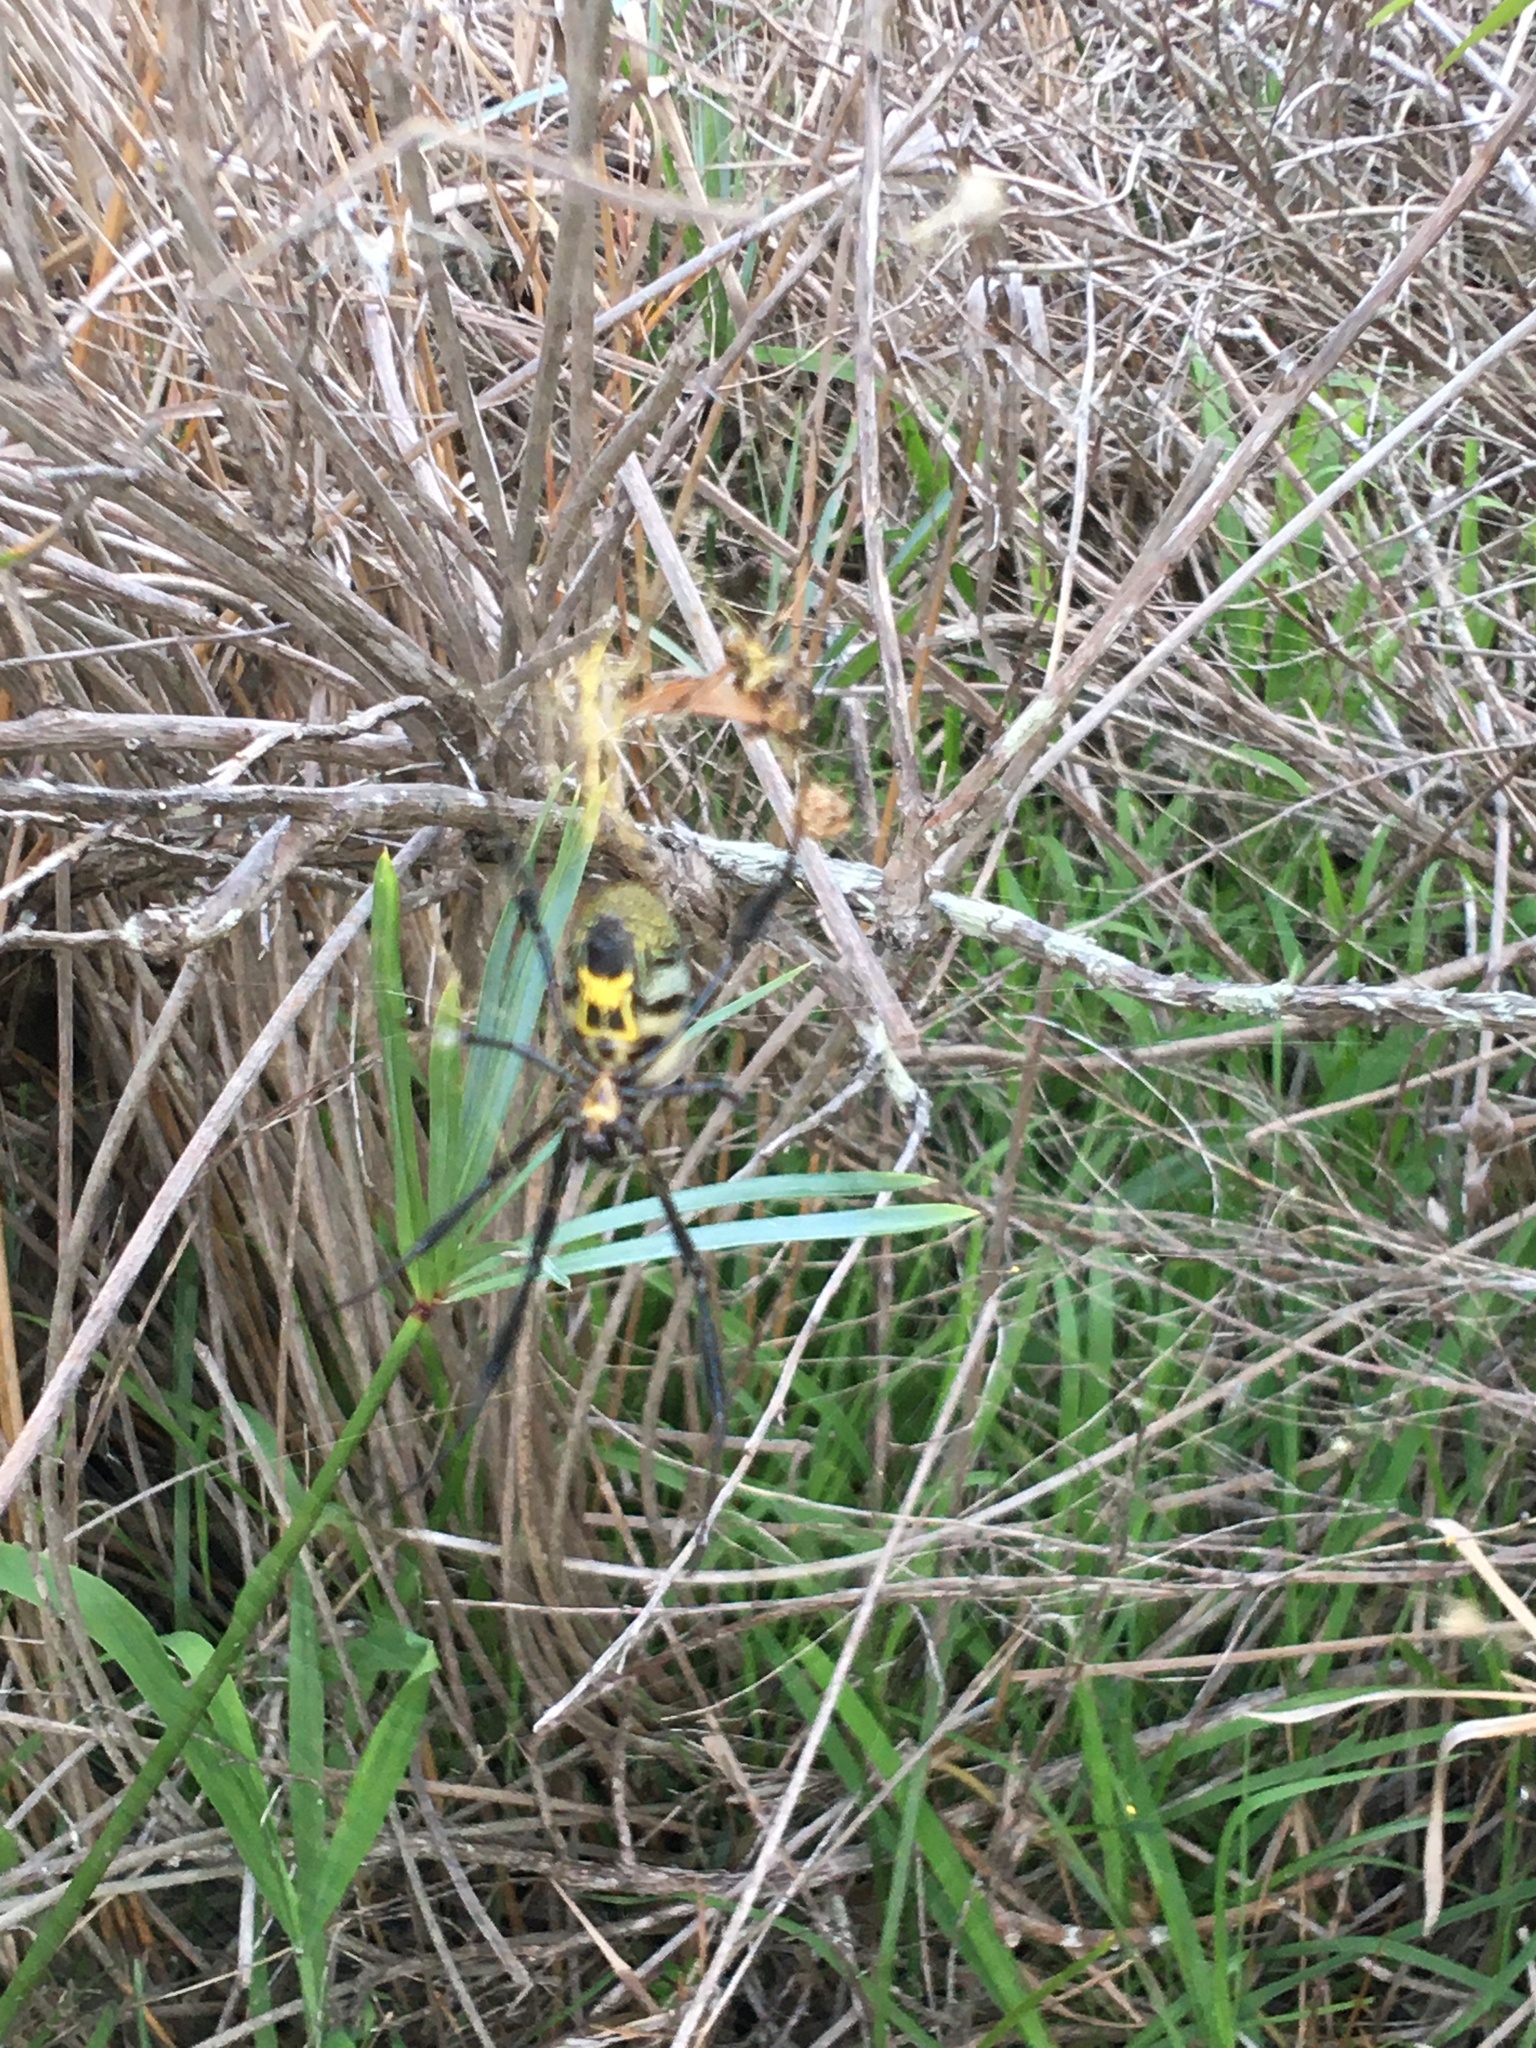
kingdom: Animalia
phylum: Arthropoda
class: Arachnida
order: Araneae
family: Araneidae
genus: Trichonephila
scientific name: Trichonephila fenestrata
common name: Hairy golden orb weaver
